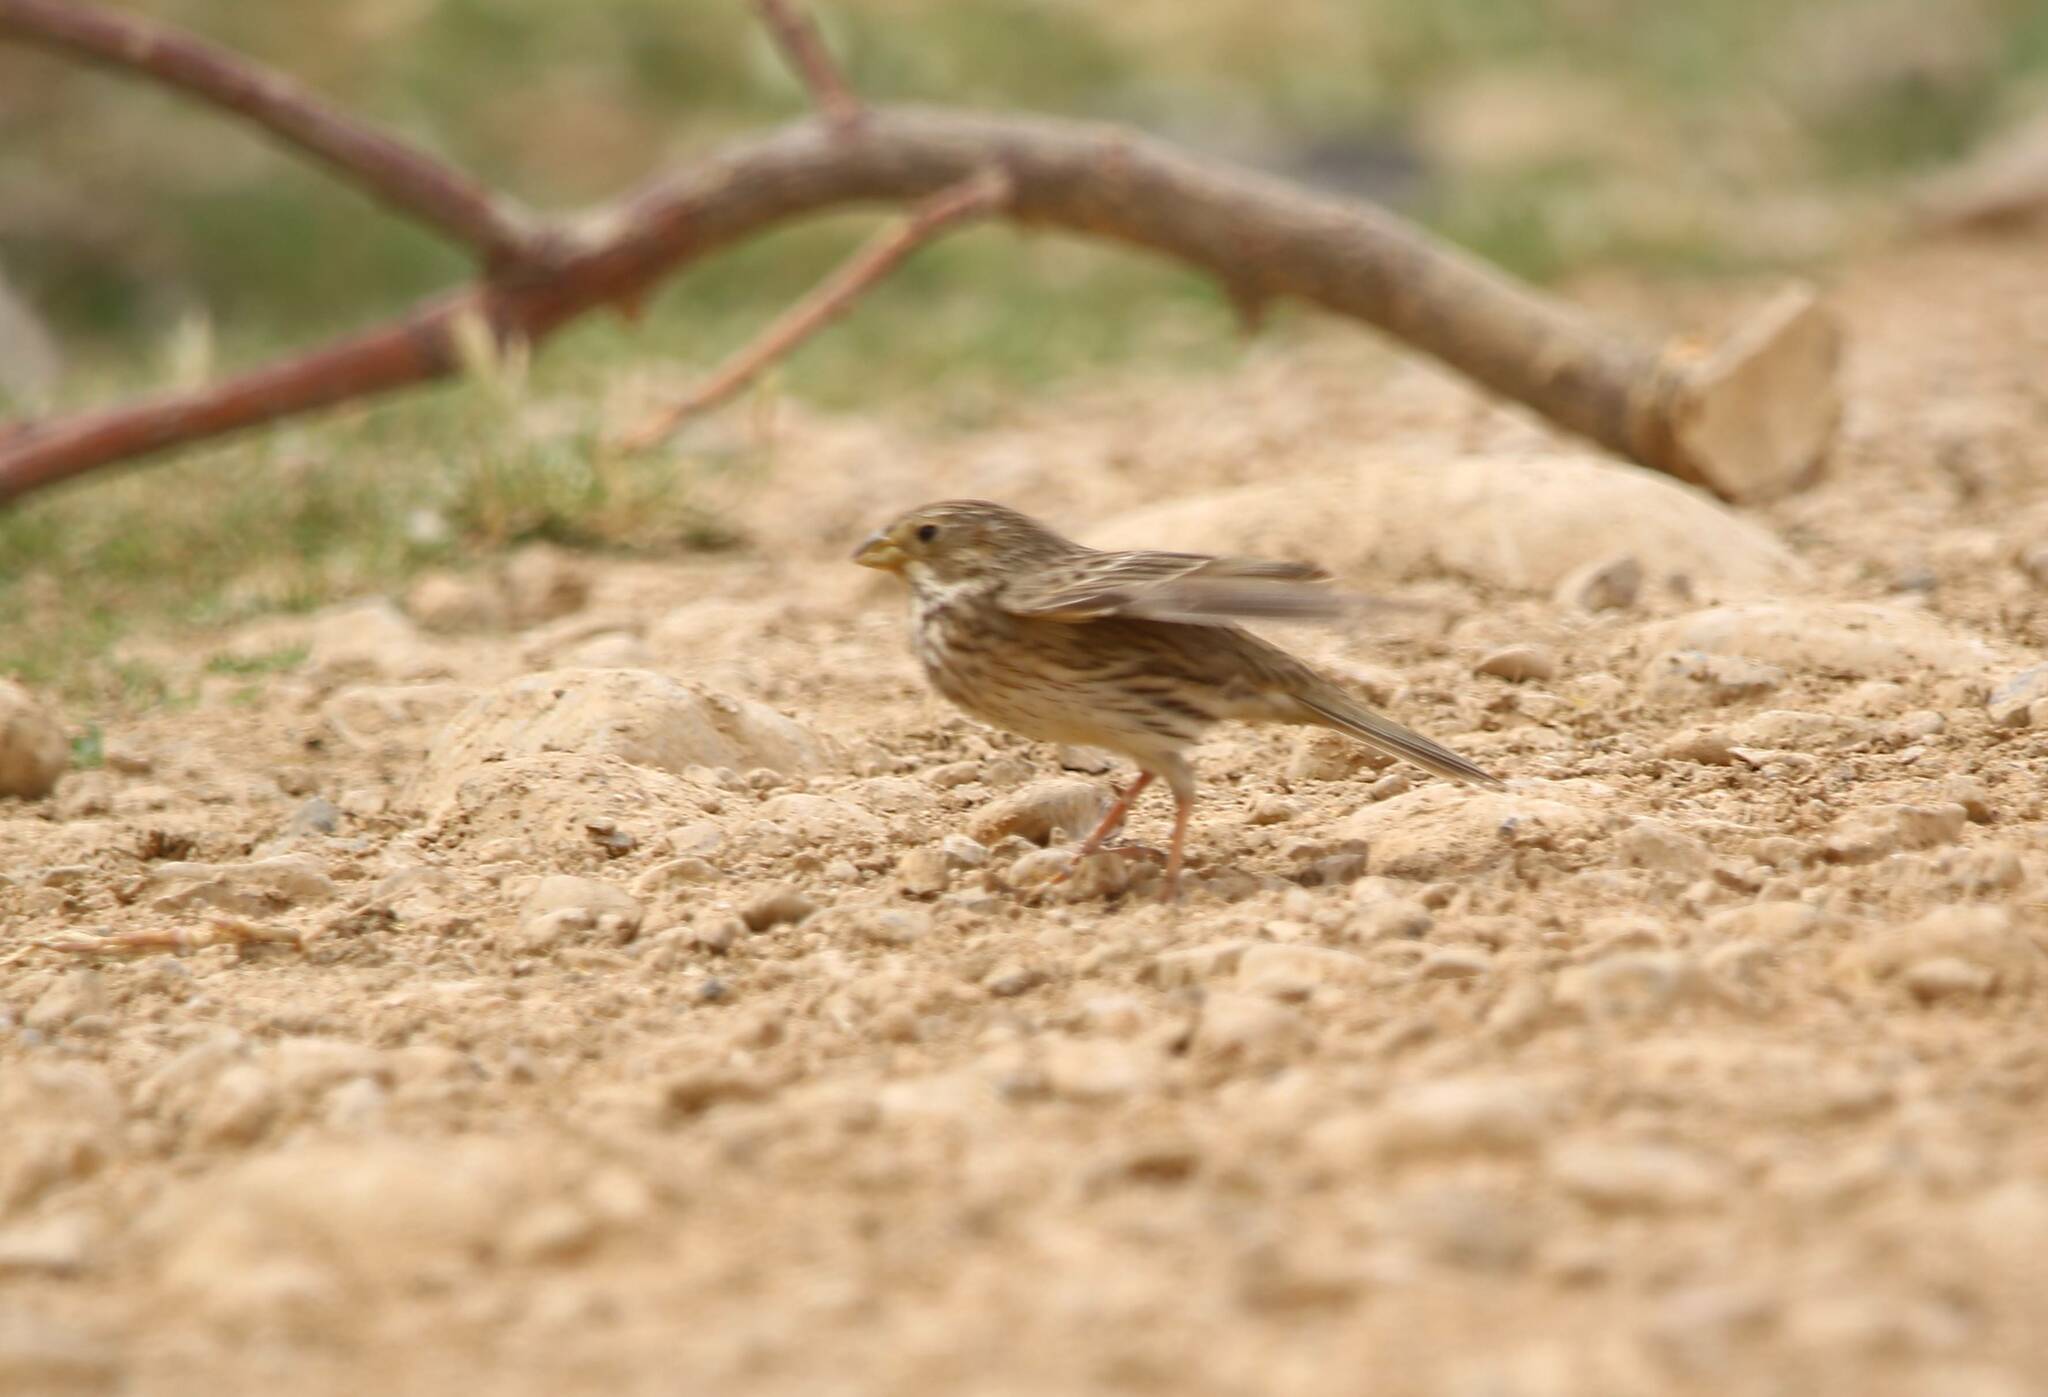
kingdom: Animalia
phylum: Chordata
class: Aves
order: Passeriformes
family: Emberizidae
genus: Emberiza
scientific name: Emberiza calandra
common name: Corn bunting
